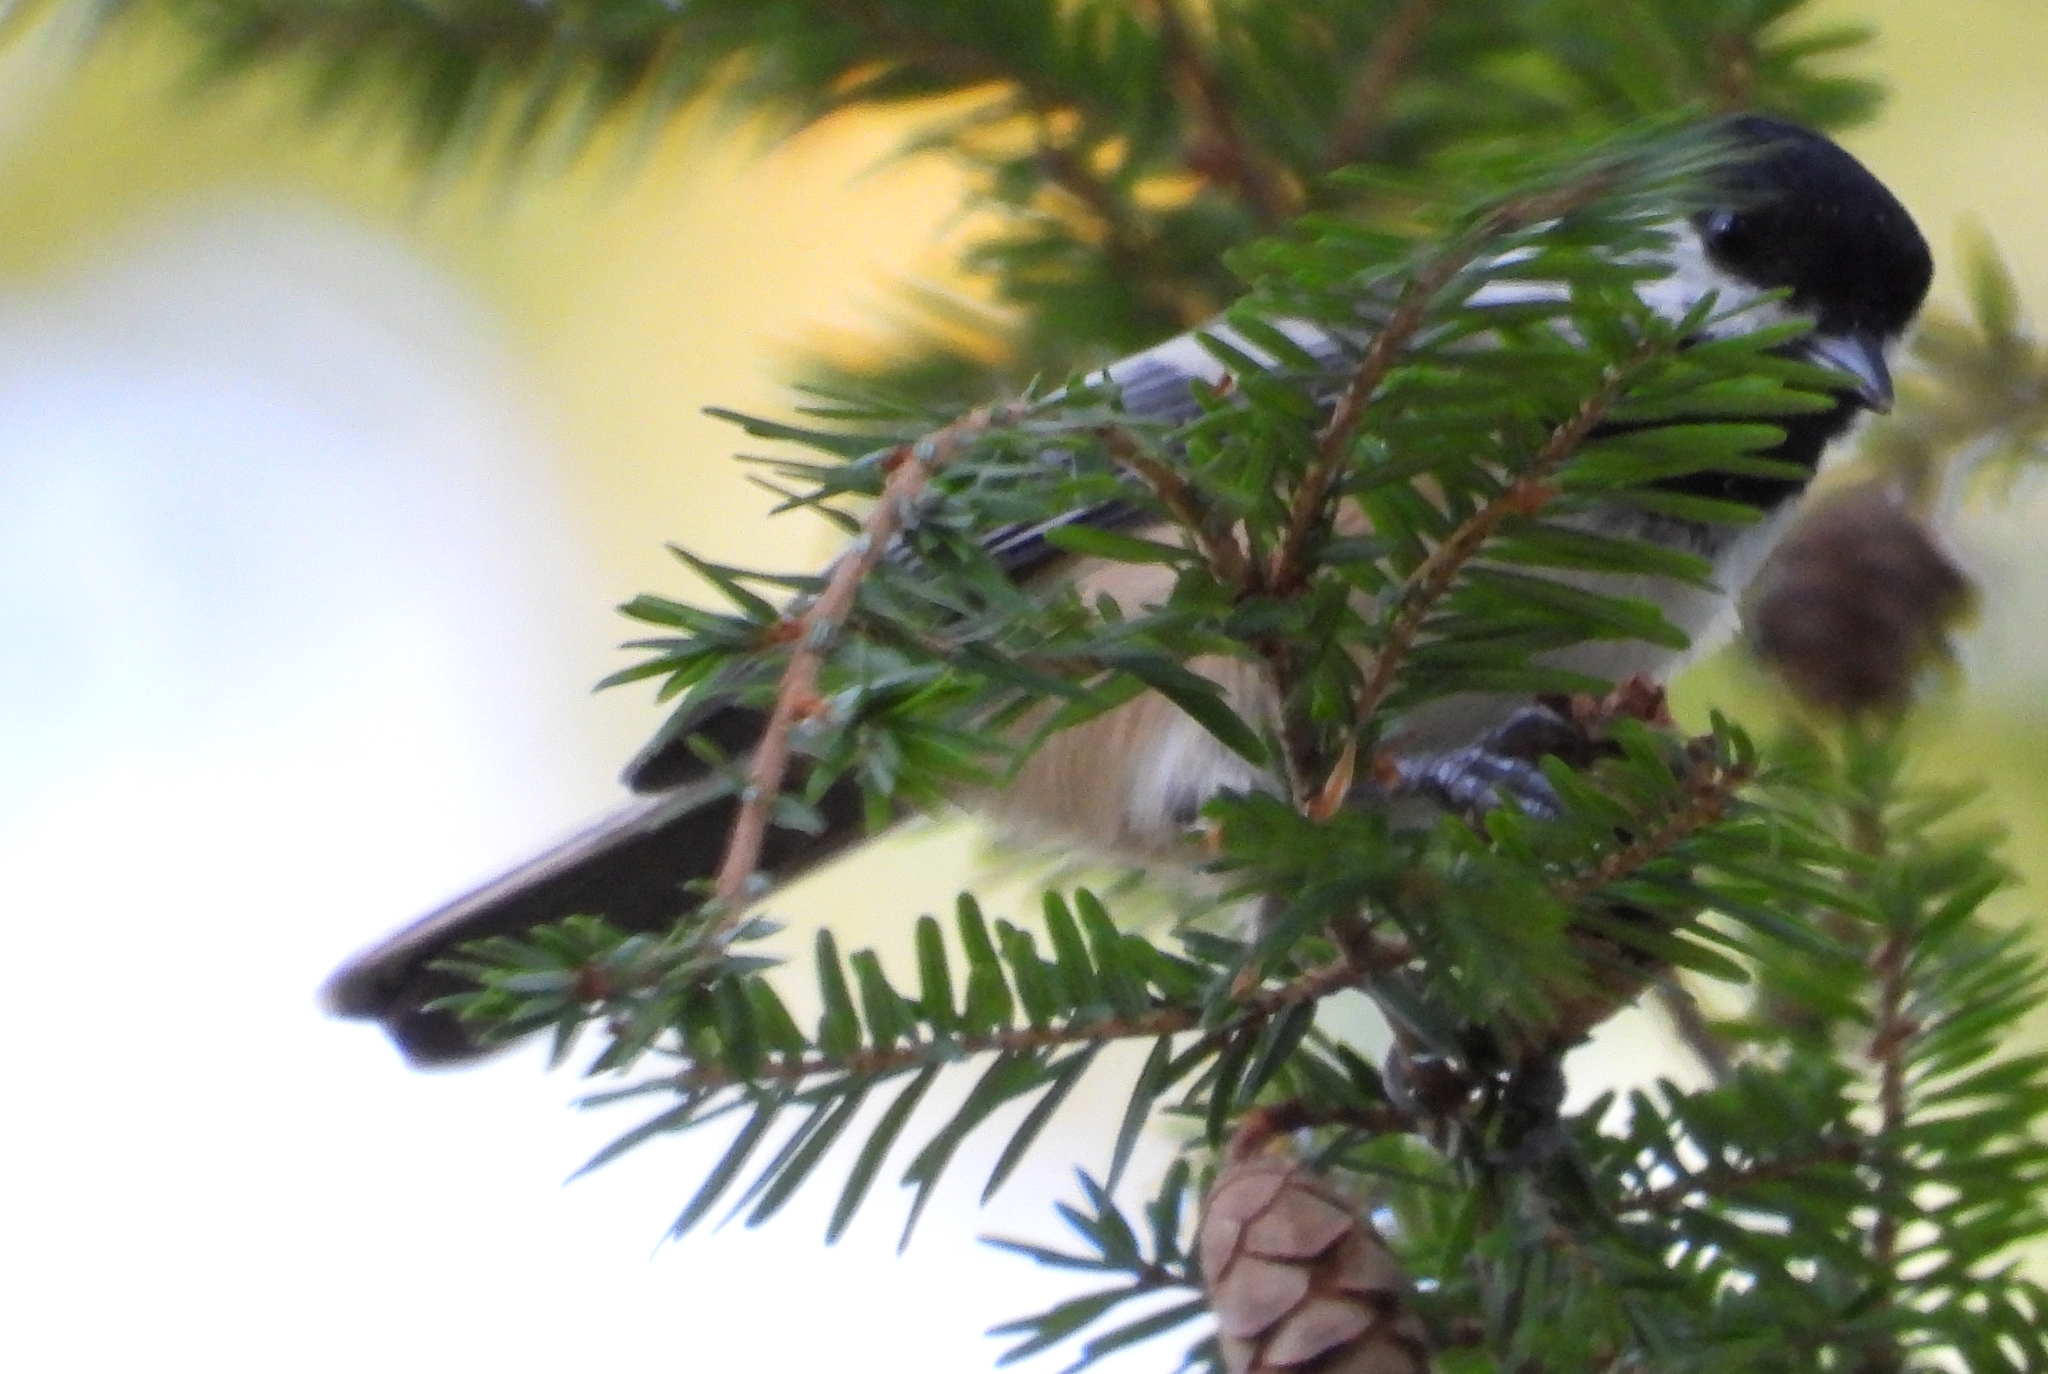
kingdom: Animalia
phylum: Chordata
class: Aves
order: Passeriformes
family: Paridae
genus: Poecile
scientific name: Poecile atricapillus
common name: Black-capped chickadee
